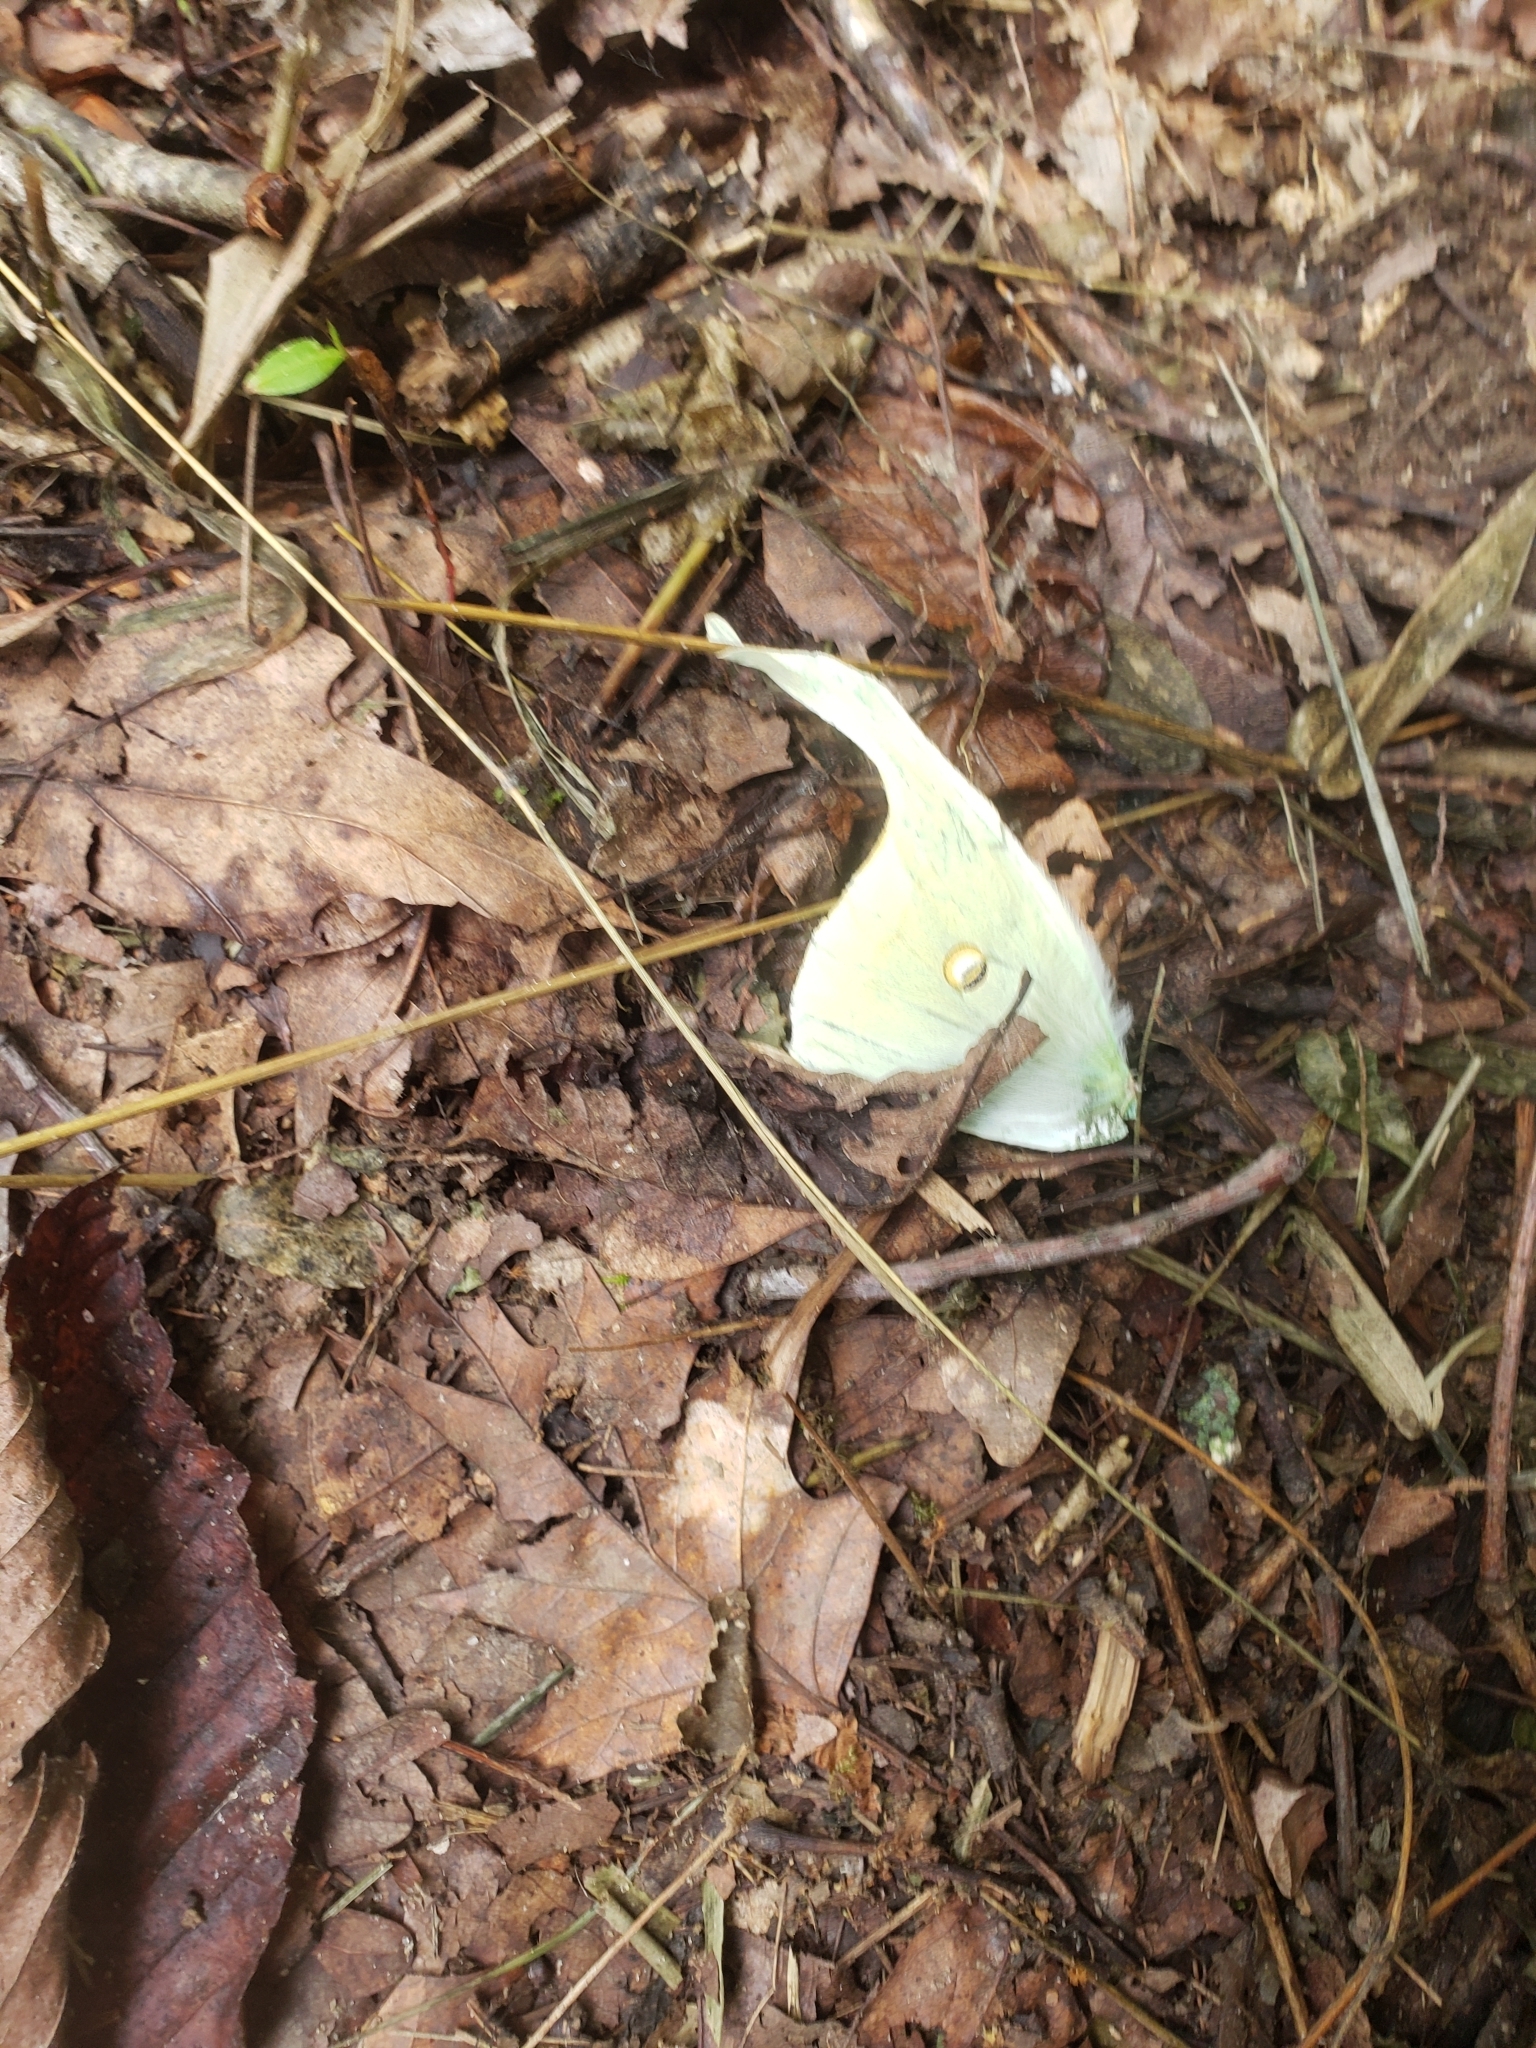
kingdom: Animalia
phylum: Arthropoda
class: Insecta
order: Lepidoptera
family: Saturniidae
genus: Actias
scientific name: Actias luna
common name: Luna moth
